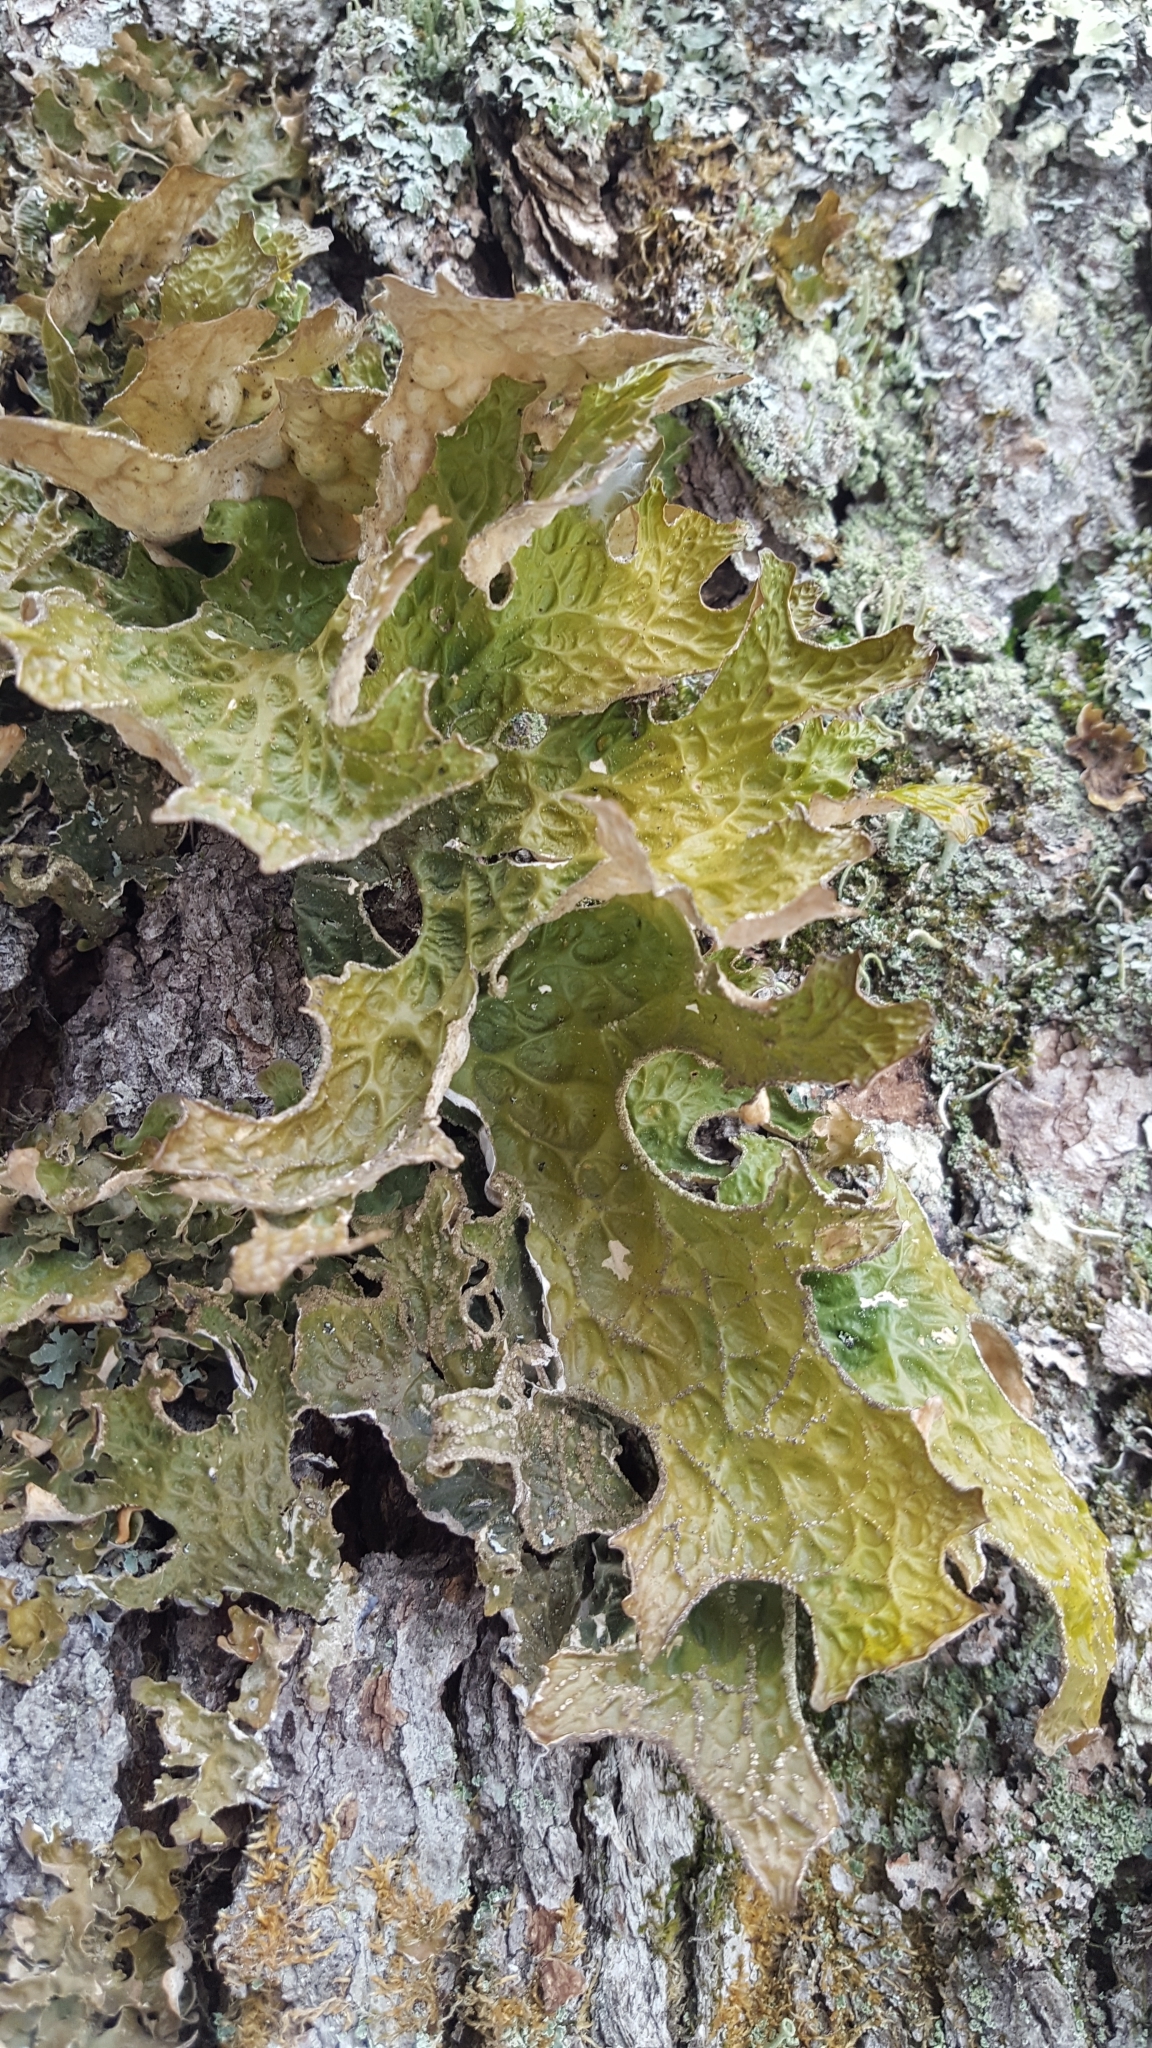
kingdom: Fungi
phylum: Ascomycota
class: Lecanoromycetes
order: Peltigerales
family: Lobariaceae
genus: Lobaria
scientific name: Lobaria pulmonaria
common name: Lungwort
